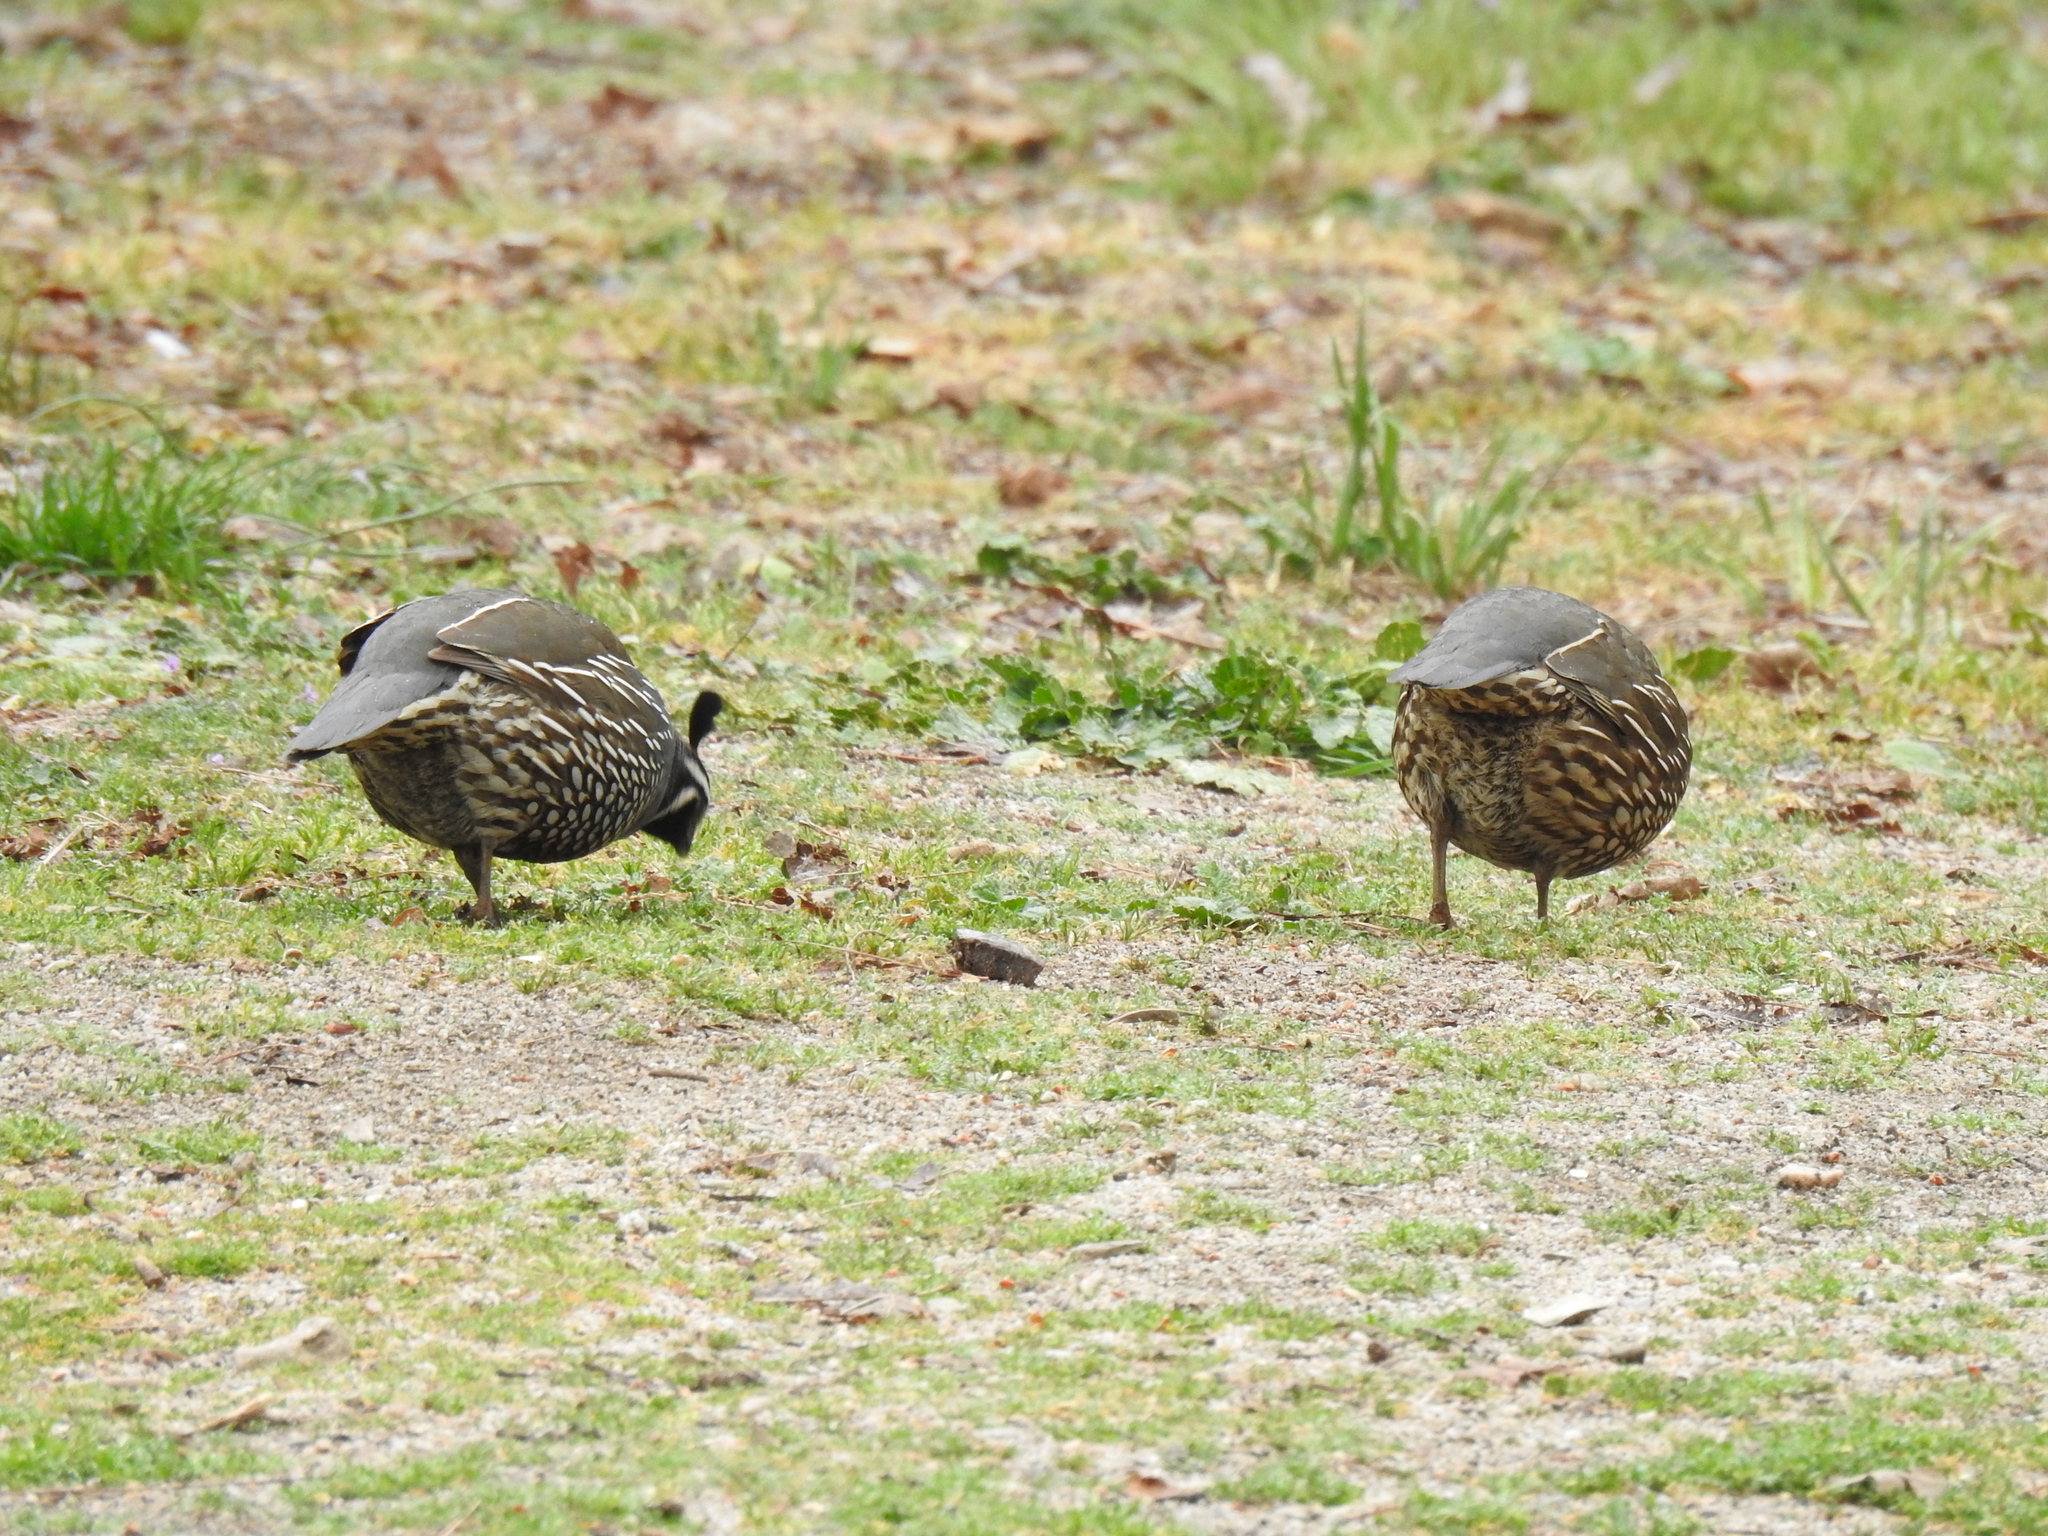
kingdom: Animalia
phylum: Chordata
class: Aves
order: Galliformes
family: Odontophoridae
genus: Callipepla
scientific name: Callipepla californica
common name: California quail
